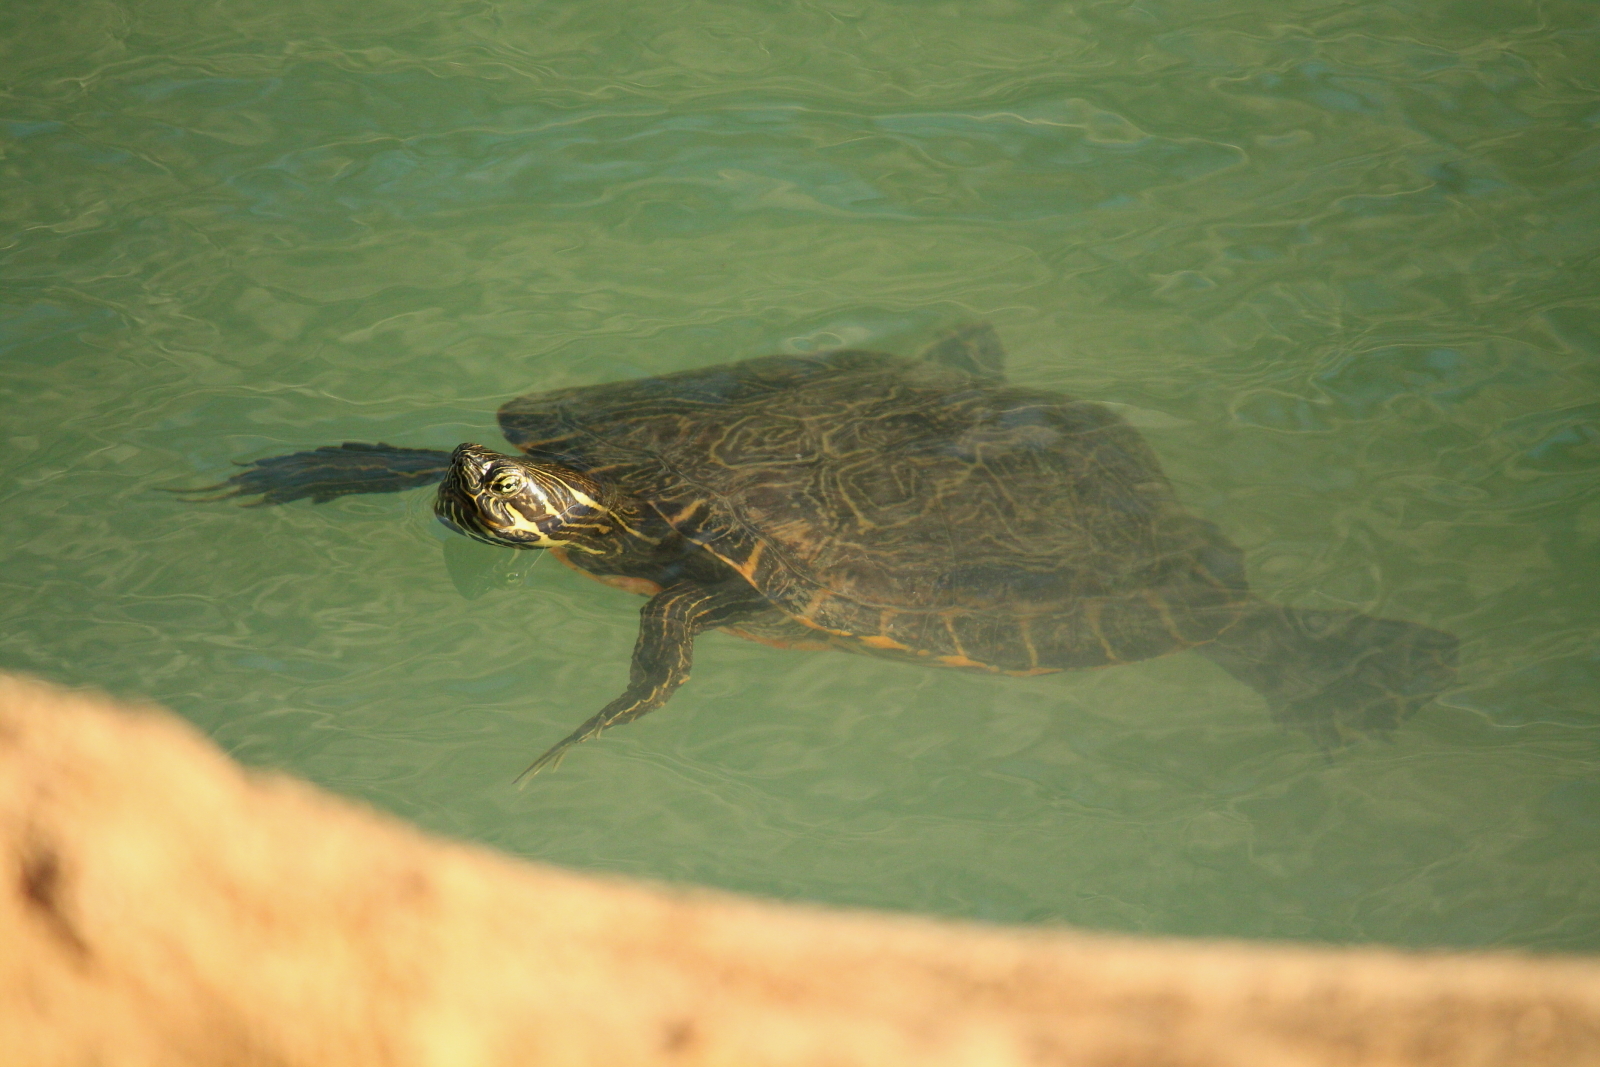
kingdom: Animalia
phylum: Chordata
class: Testudines
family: Emydidae
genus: Pseudemys
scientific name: Pseudemys concinna
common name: Eastern river cooter
